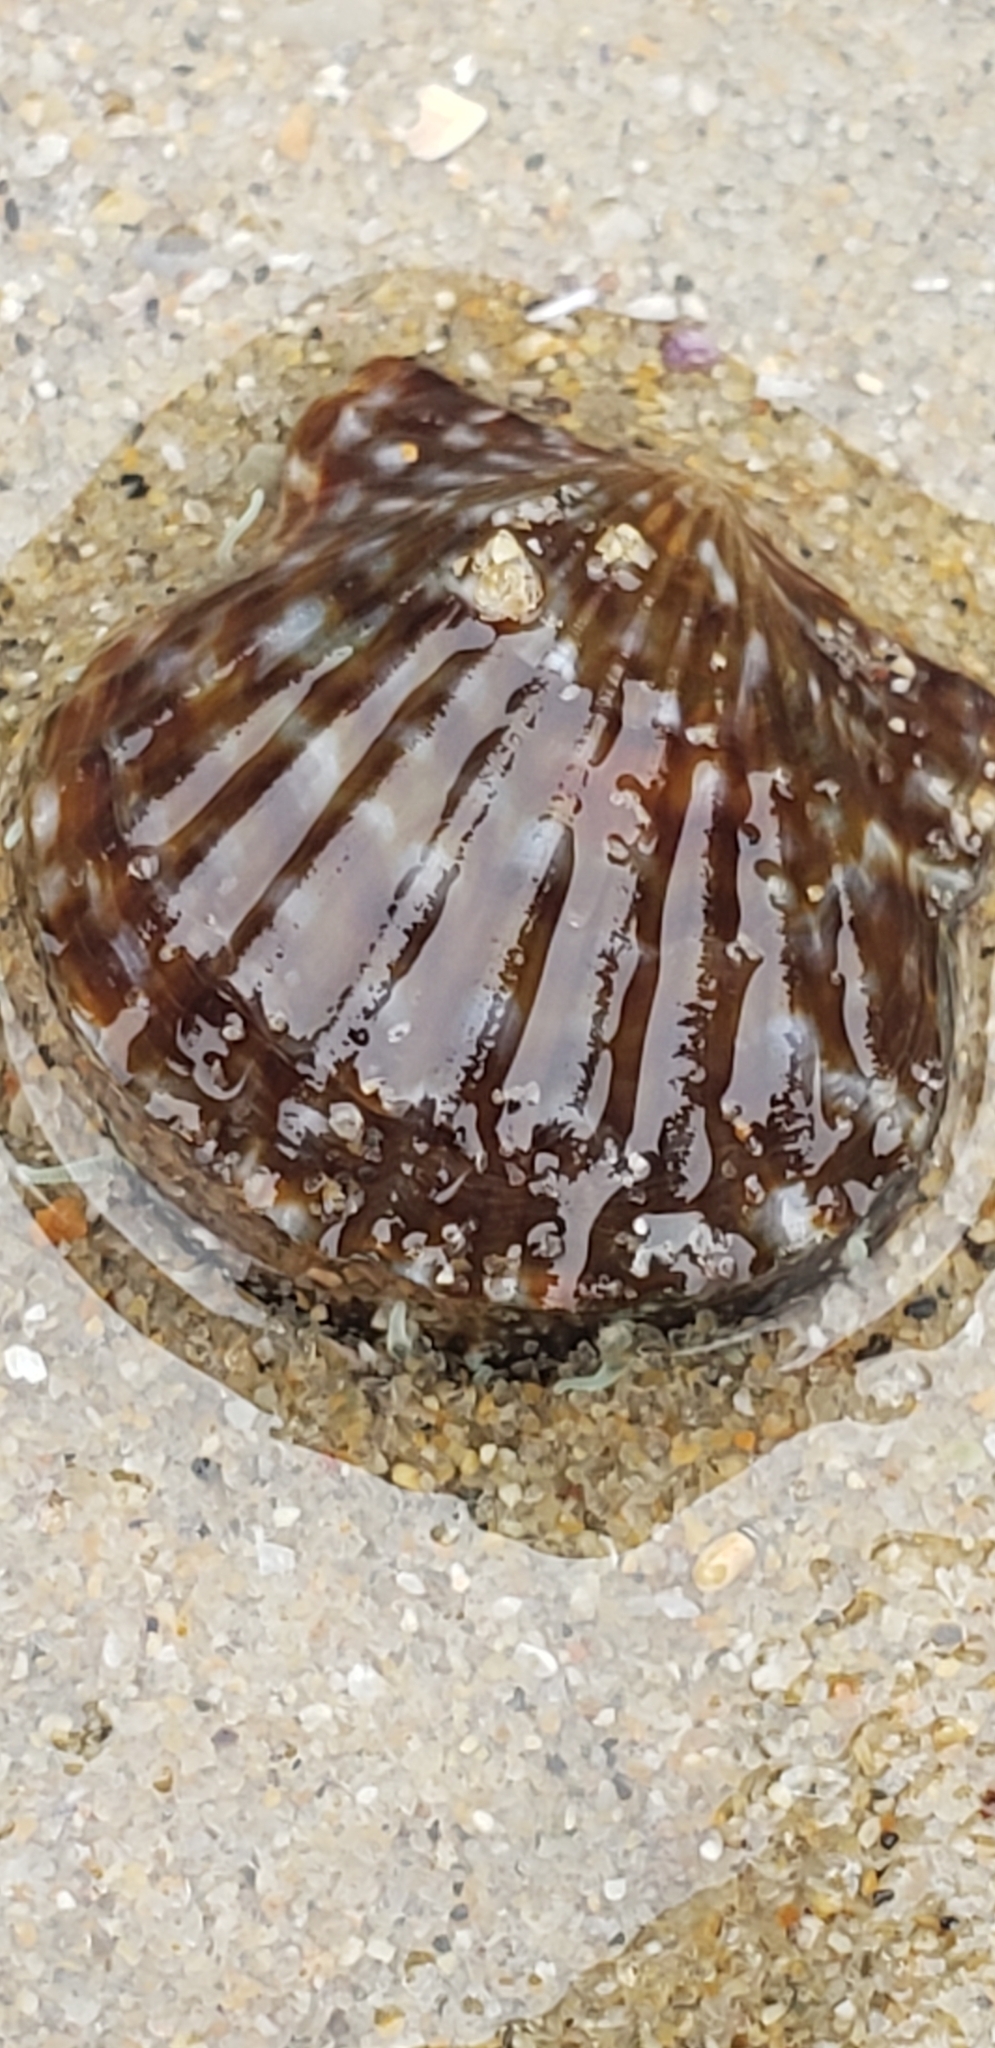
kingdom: Animalia
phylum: Mollusca
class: Bivalvia
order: Pectinida
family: Pectinidae
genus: Leptopecten
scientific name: Leptopecten latiauratus
